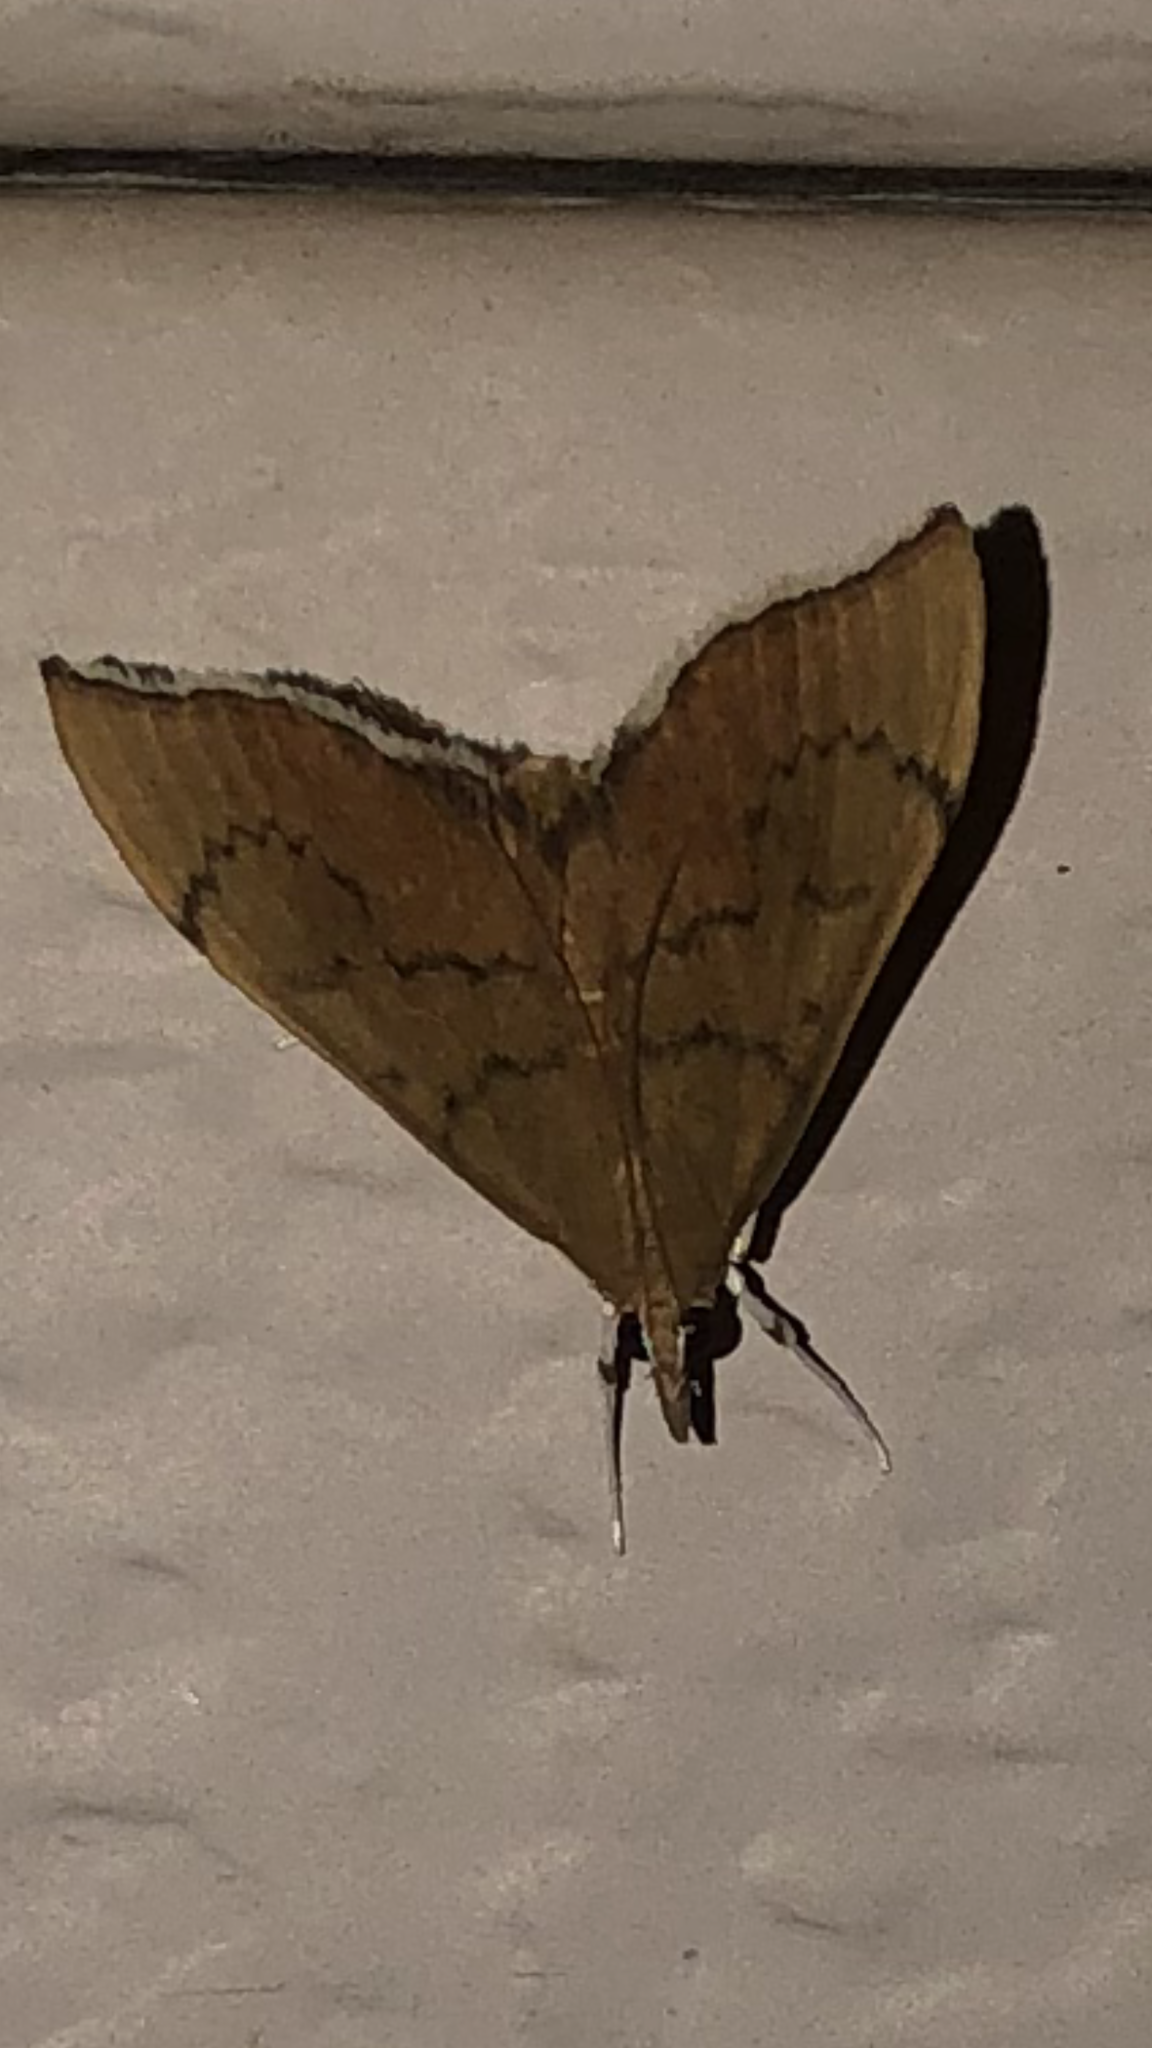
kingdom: Animalia
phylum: Arthropoda
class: Insecta
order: Lepidoptera
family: Crambidae
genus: Sericoplaga
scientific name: Sericoplaga externalis
